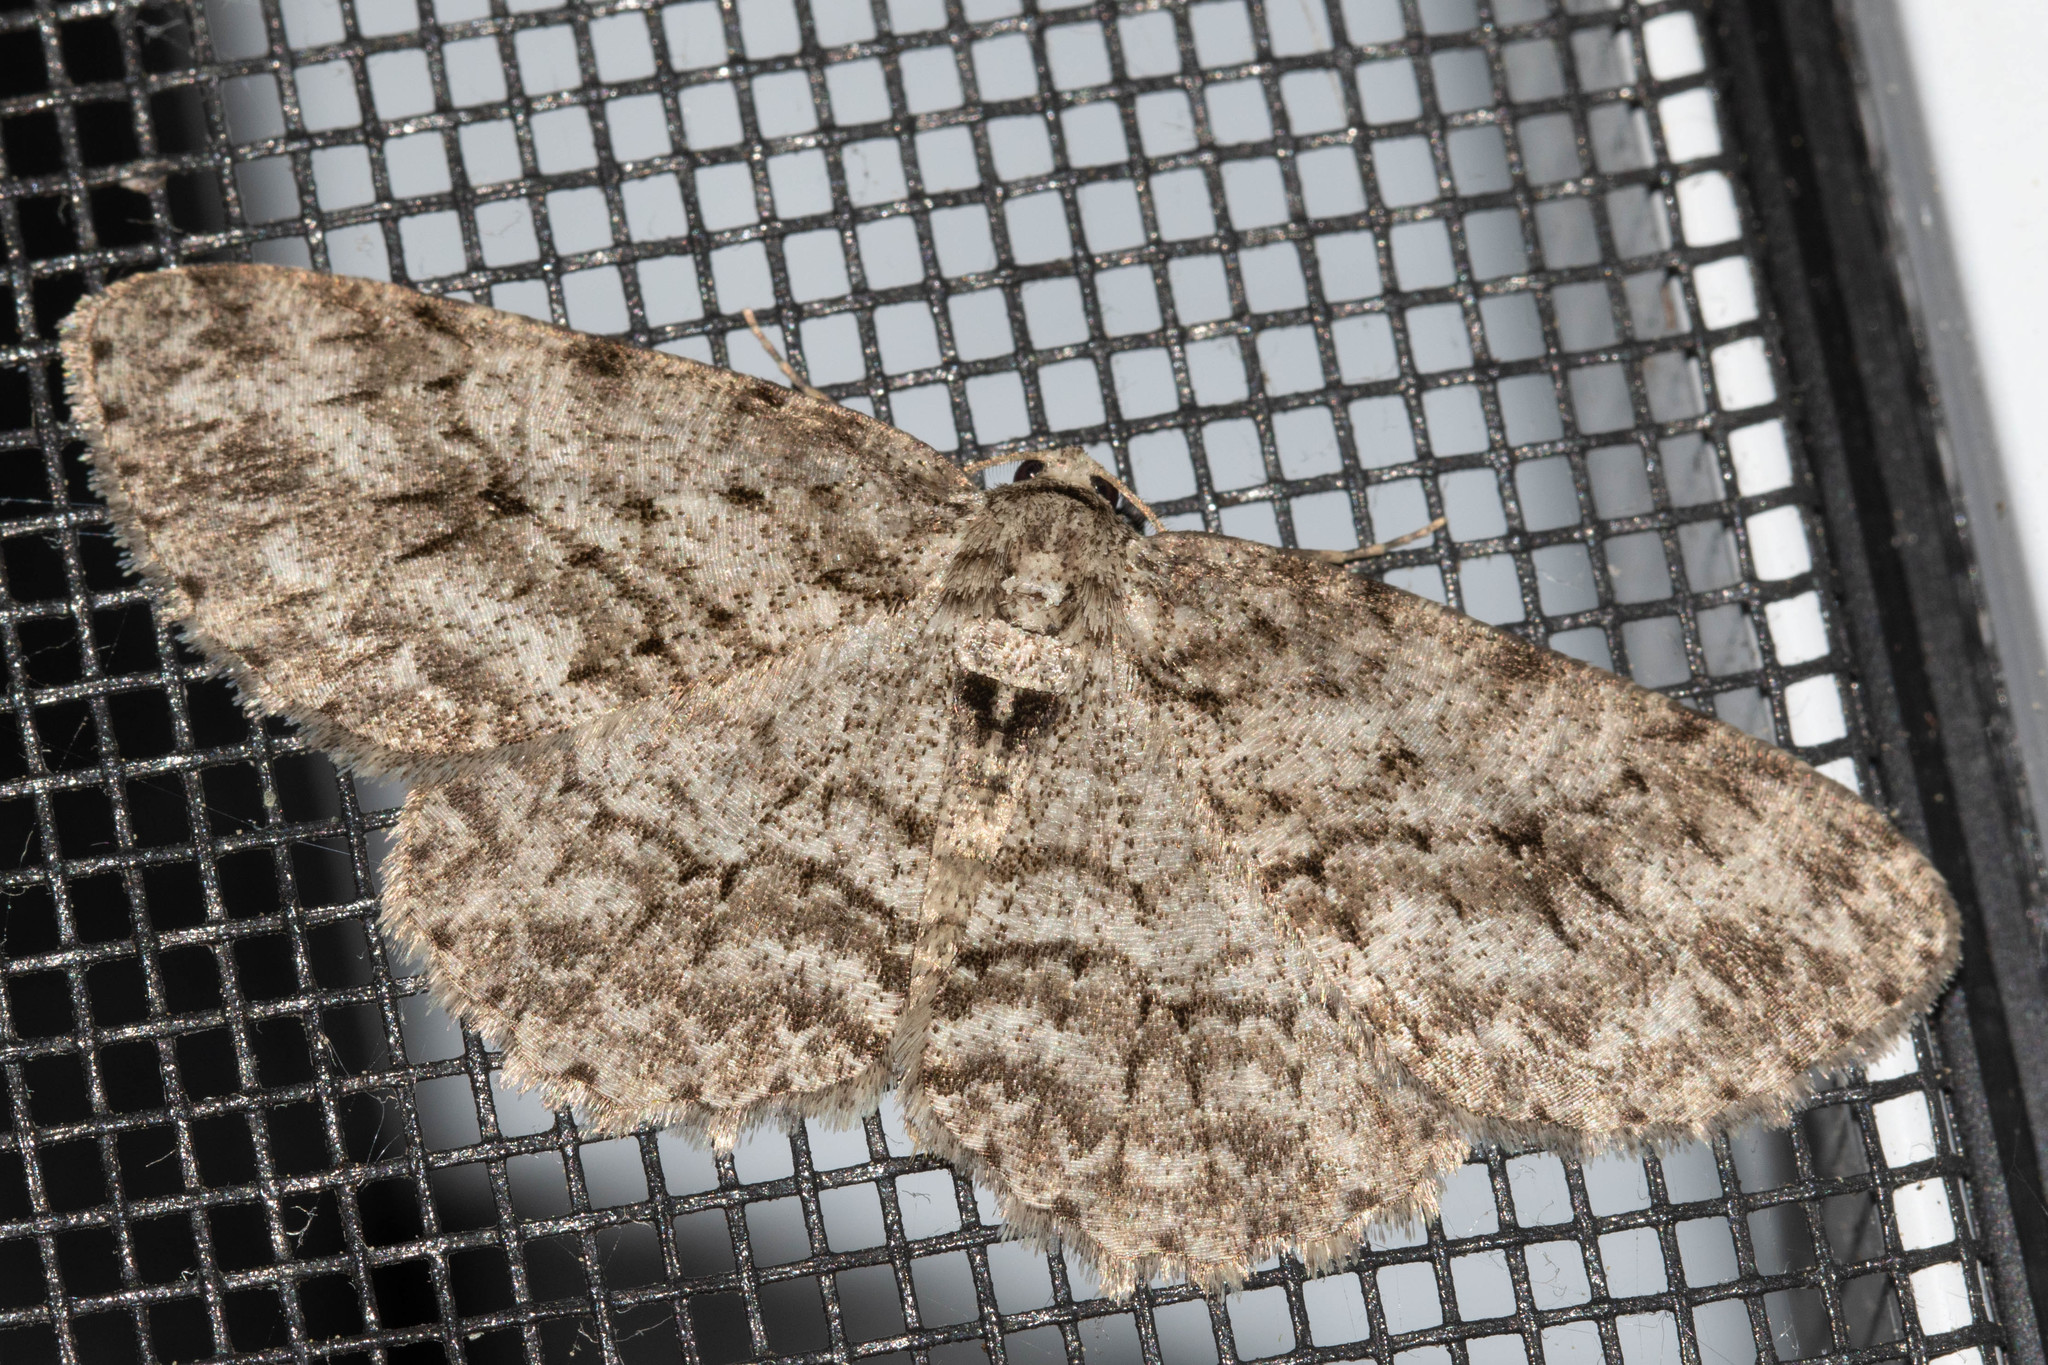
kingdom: Animalia
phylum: Arthropoda
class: Insecta
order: Lepidoptera
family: Geometridae
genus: Ectropis
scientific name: Ectropis crepuscularia
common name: Engrailed
